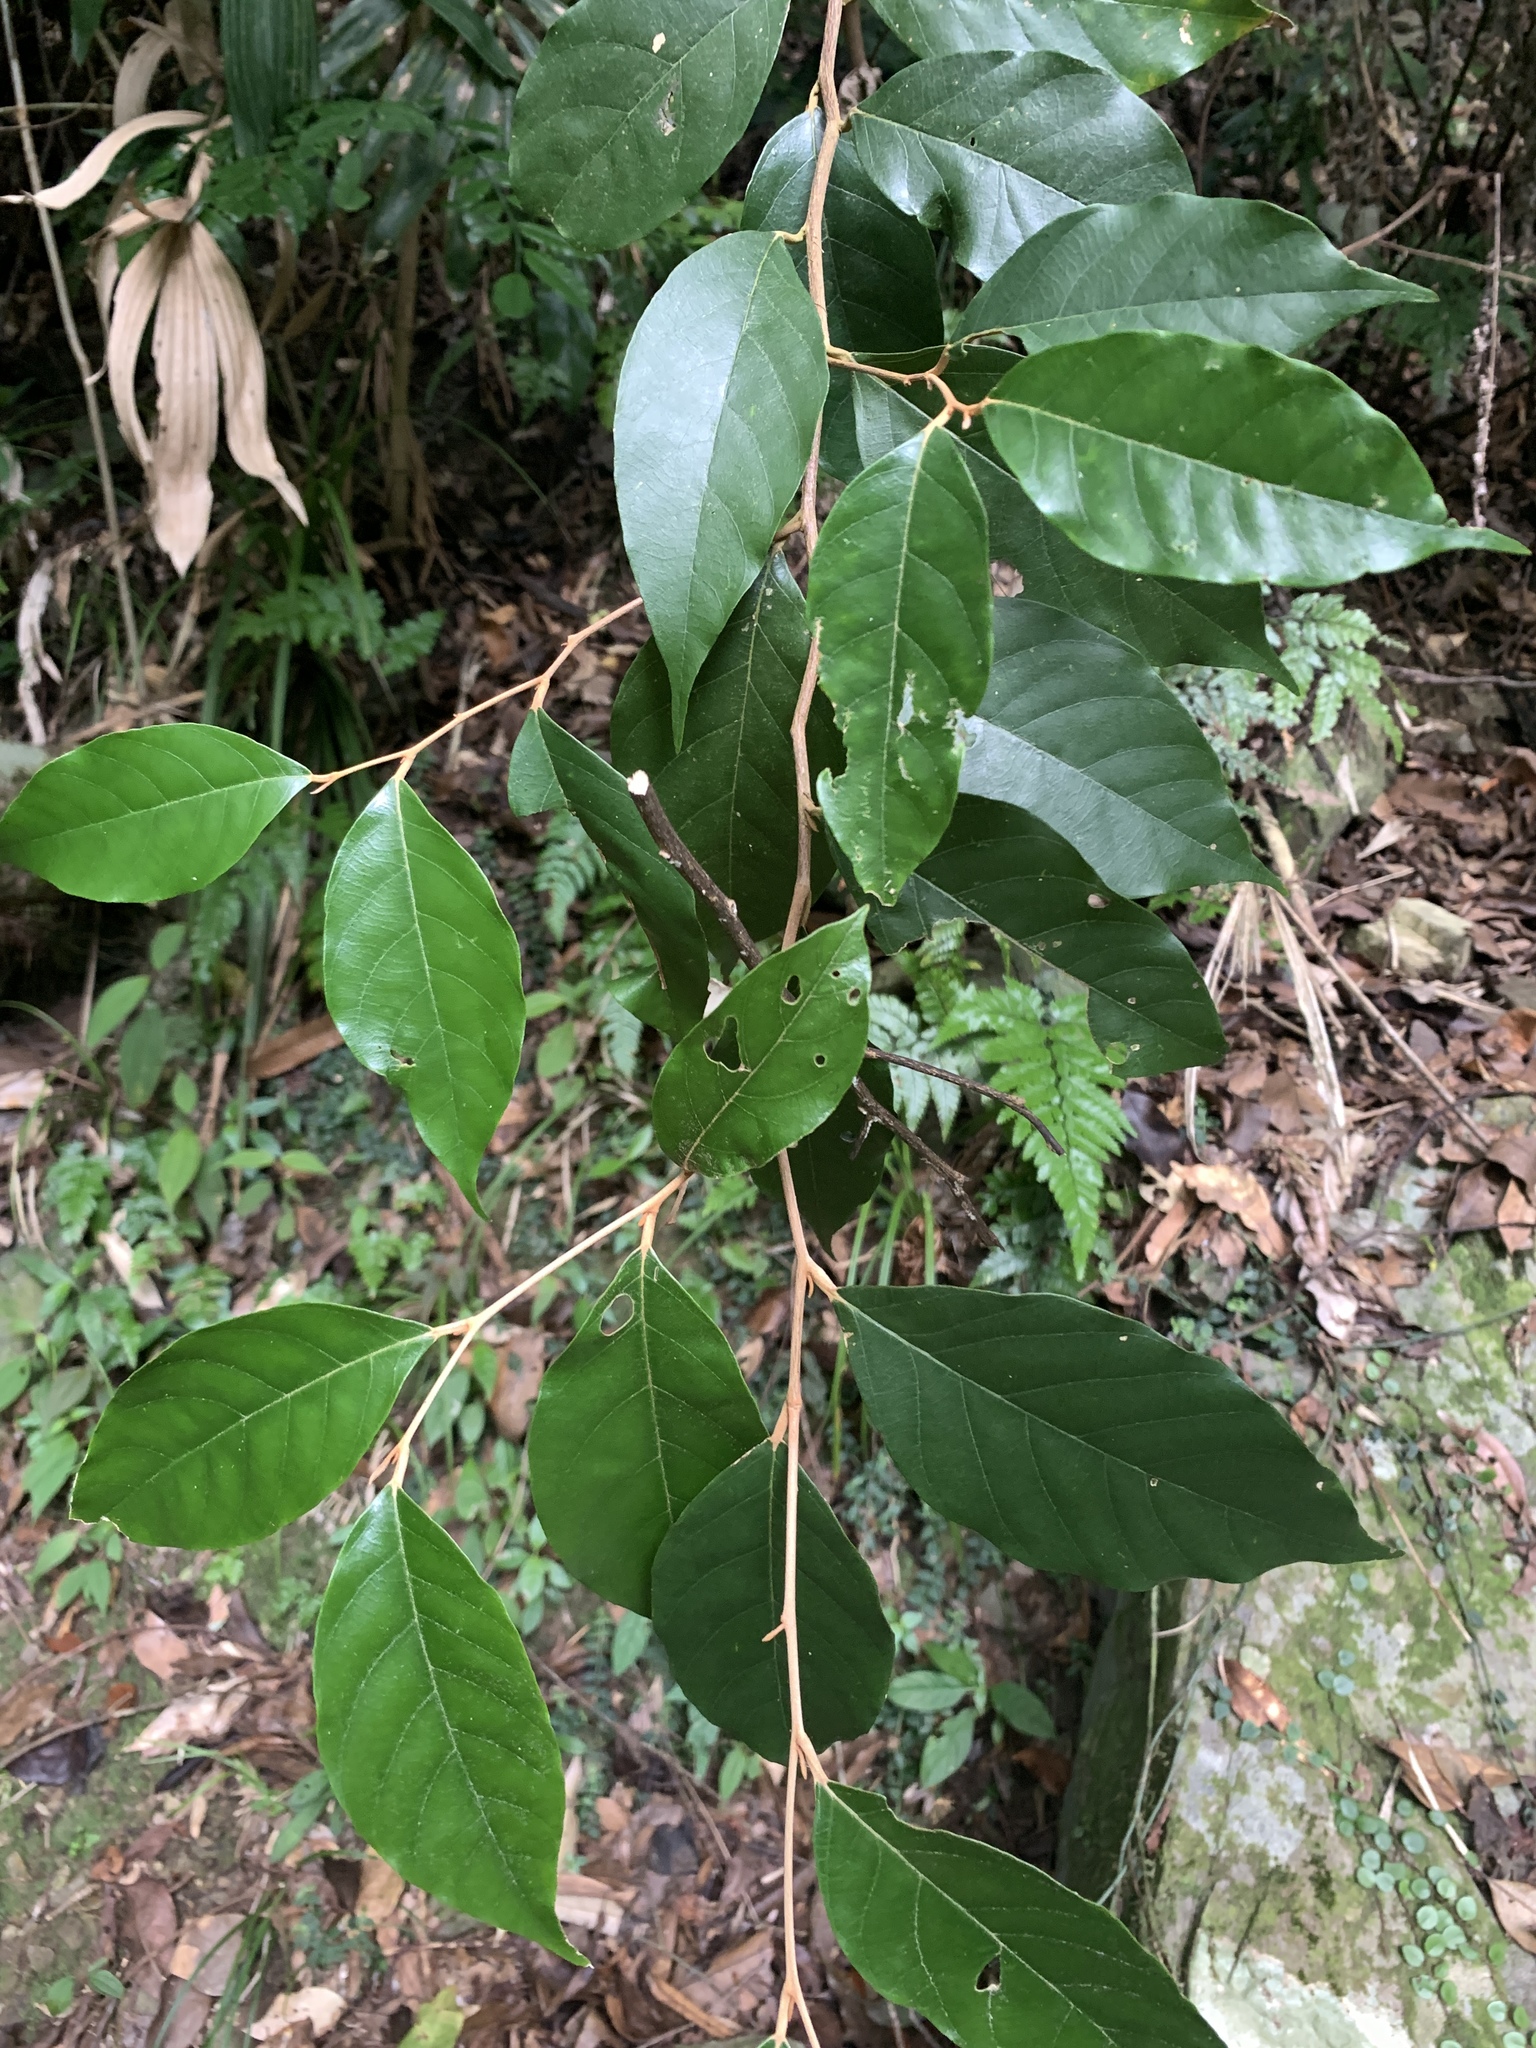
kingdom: Plantae
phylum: Tracheophyta
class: Magnoliopsida
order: Ericales
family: Styracaceae
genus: Styrax
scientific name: Styrax suberifolius
